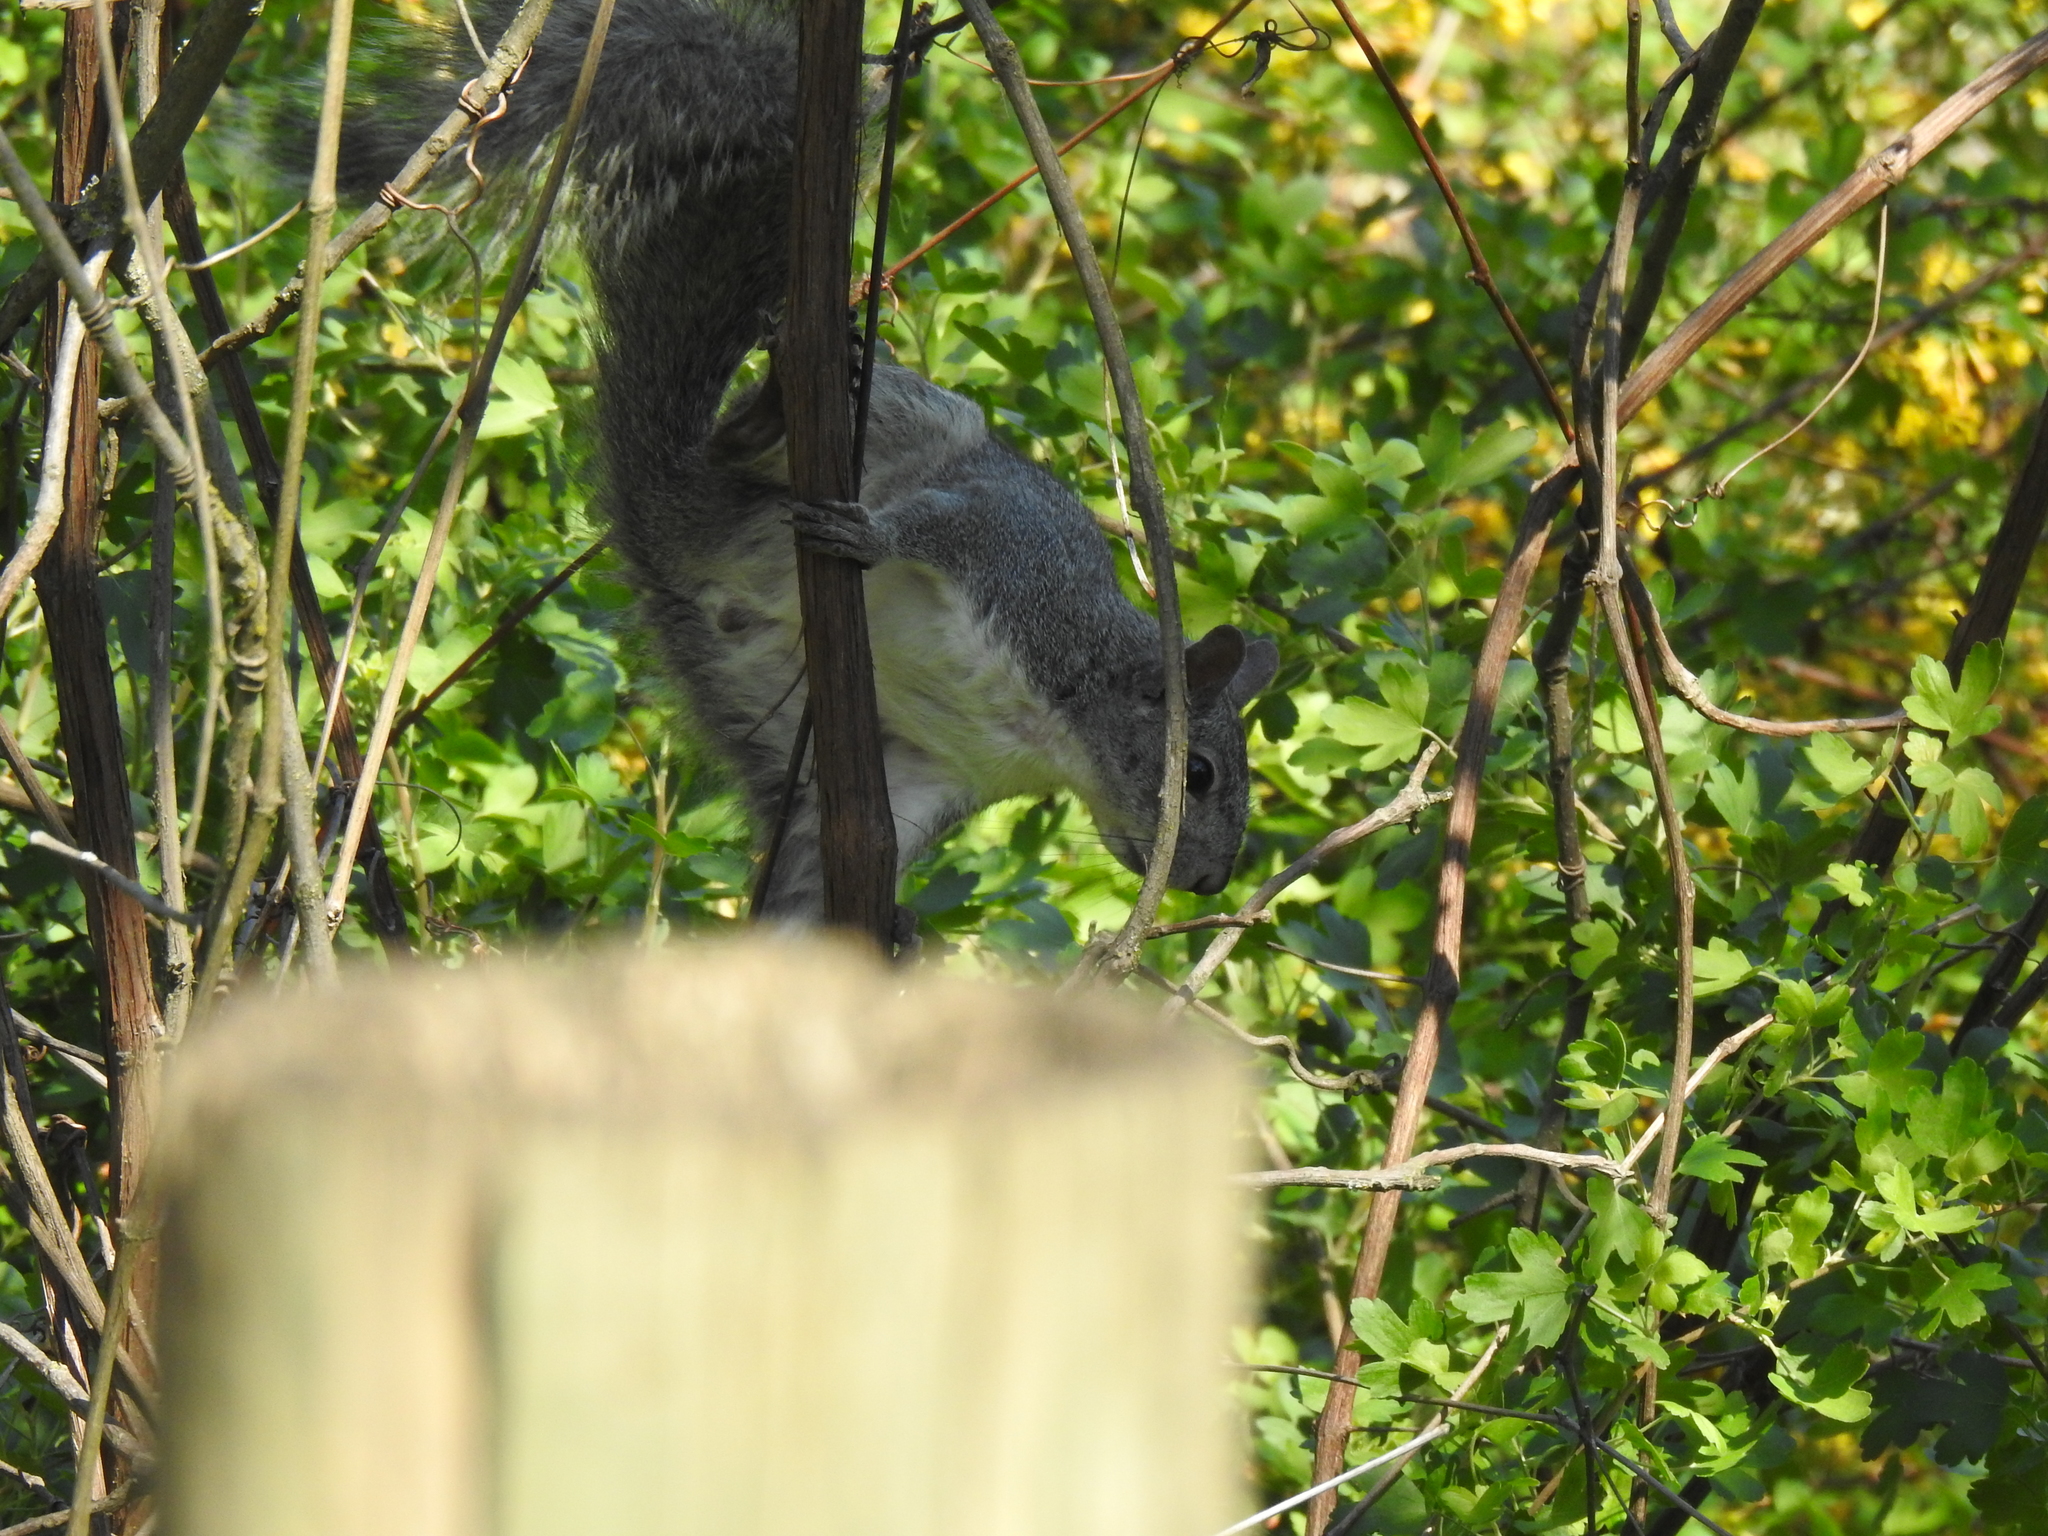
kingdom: Animalia
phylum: Chordata
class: Mammalia
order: Rodentia
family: Sciuridae
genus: Sciurus
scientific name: Sciurus griseus
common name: Western gray squirrel
